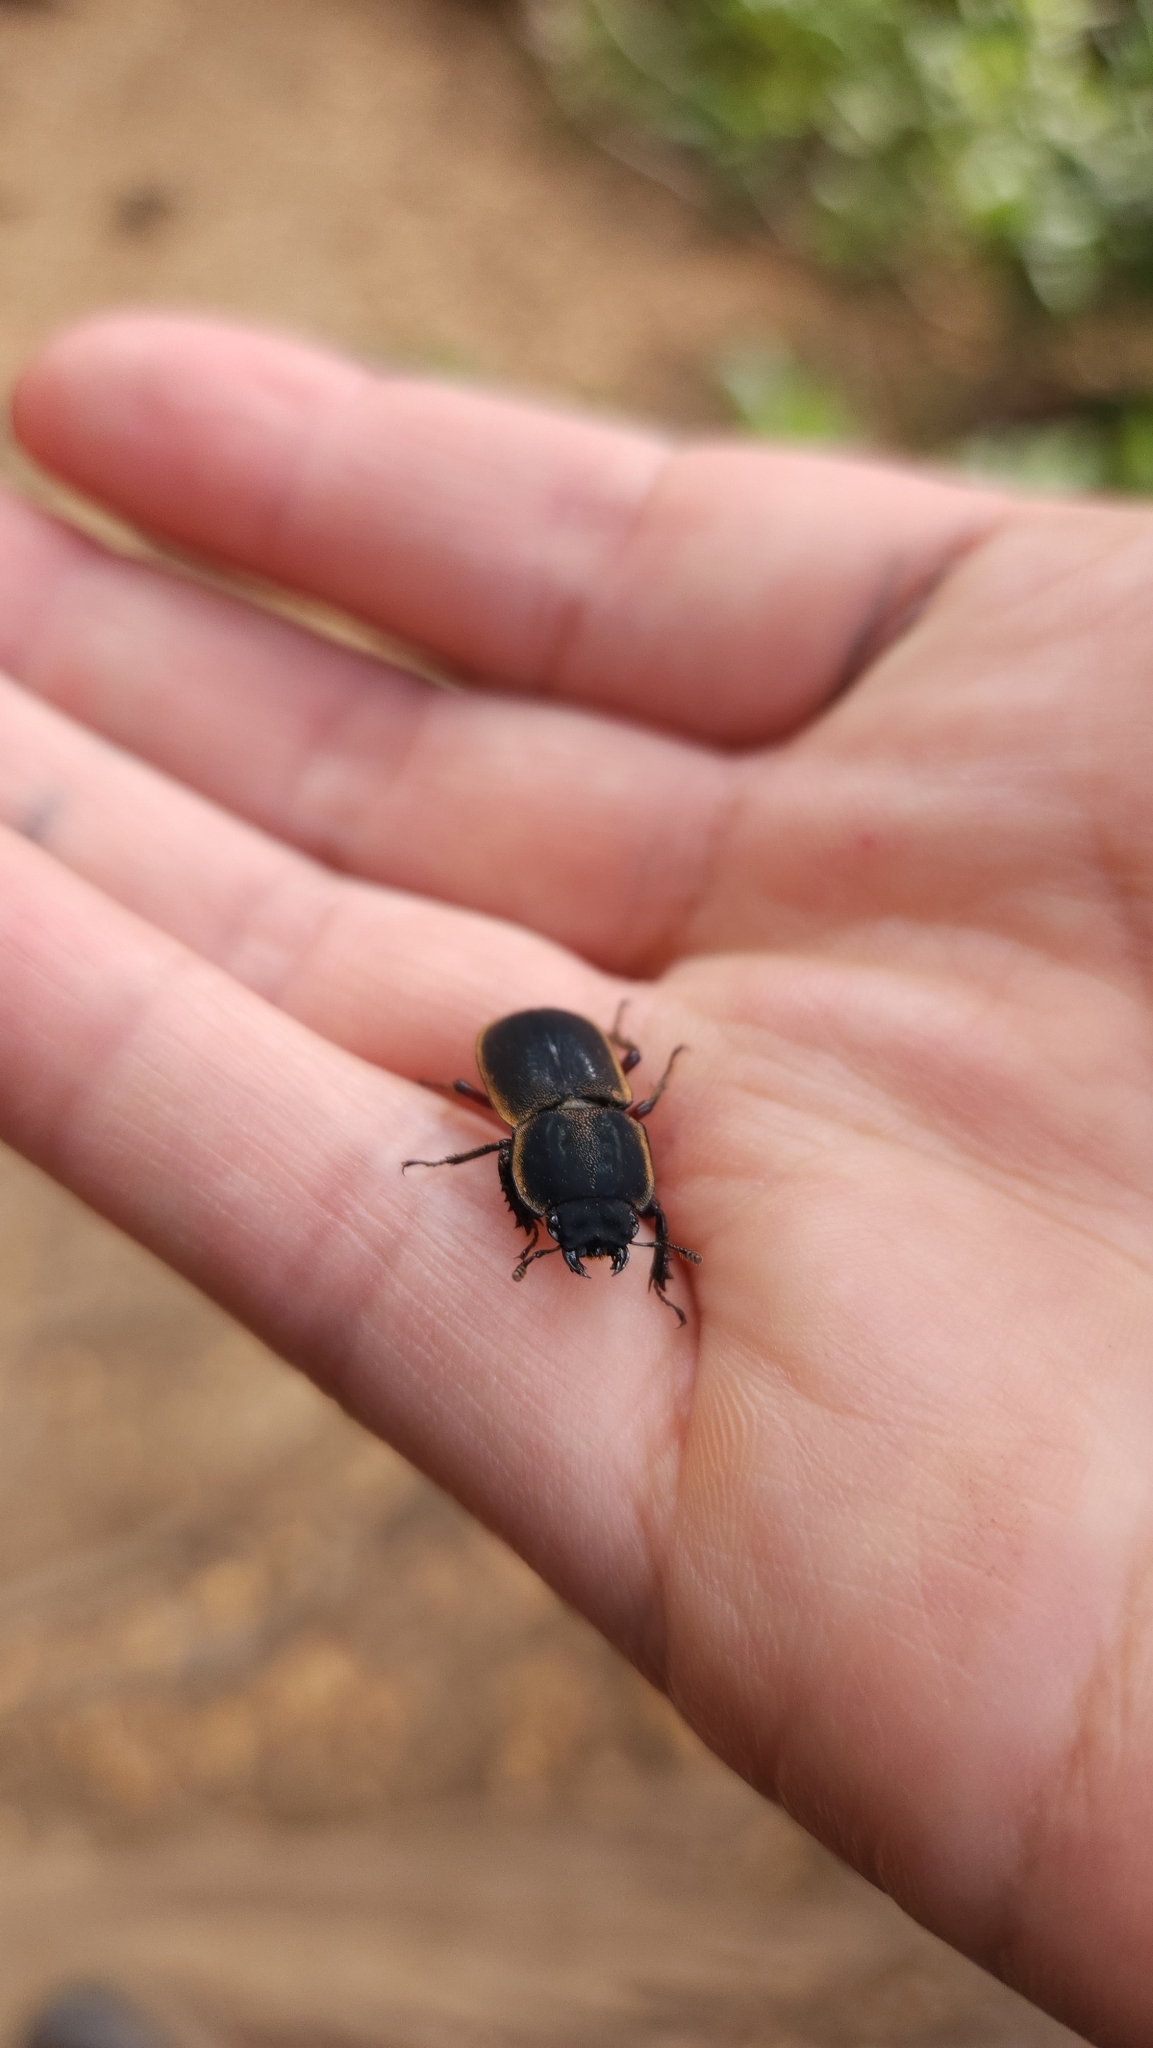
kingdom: Animalia
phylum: Arthropoda
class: Insecta
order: Coleoptera
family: Lucanidae
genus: Erichius
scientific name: Erichius femoralis
